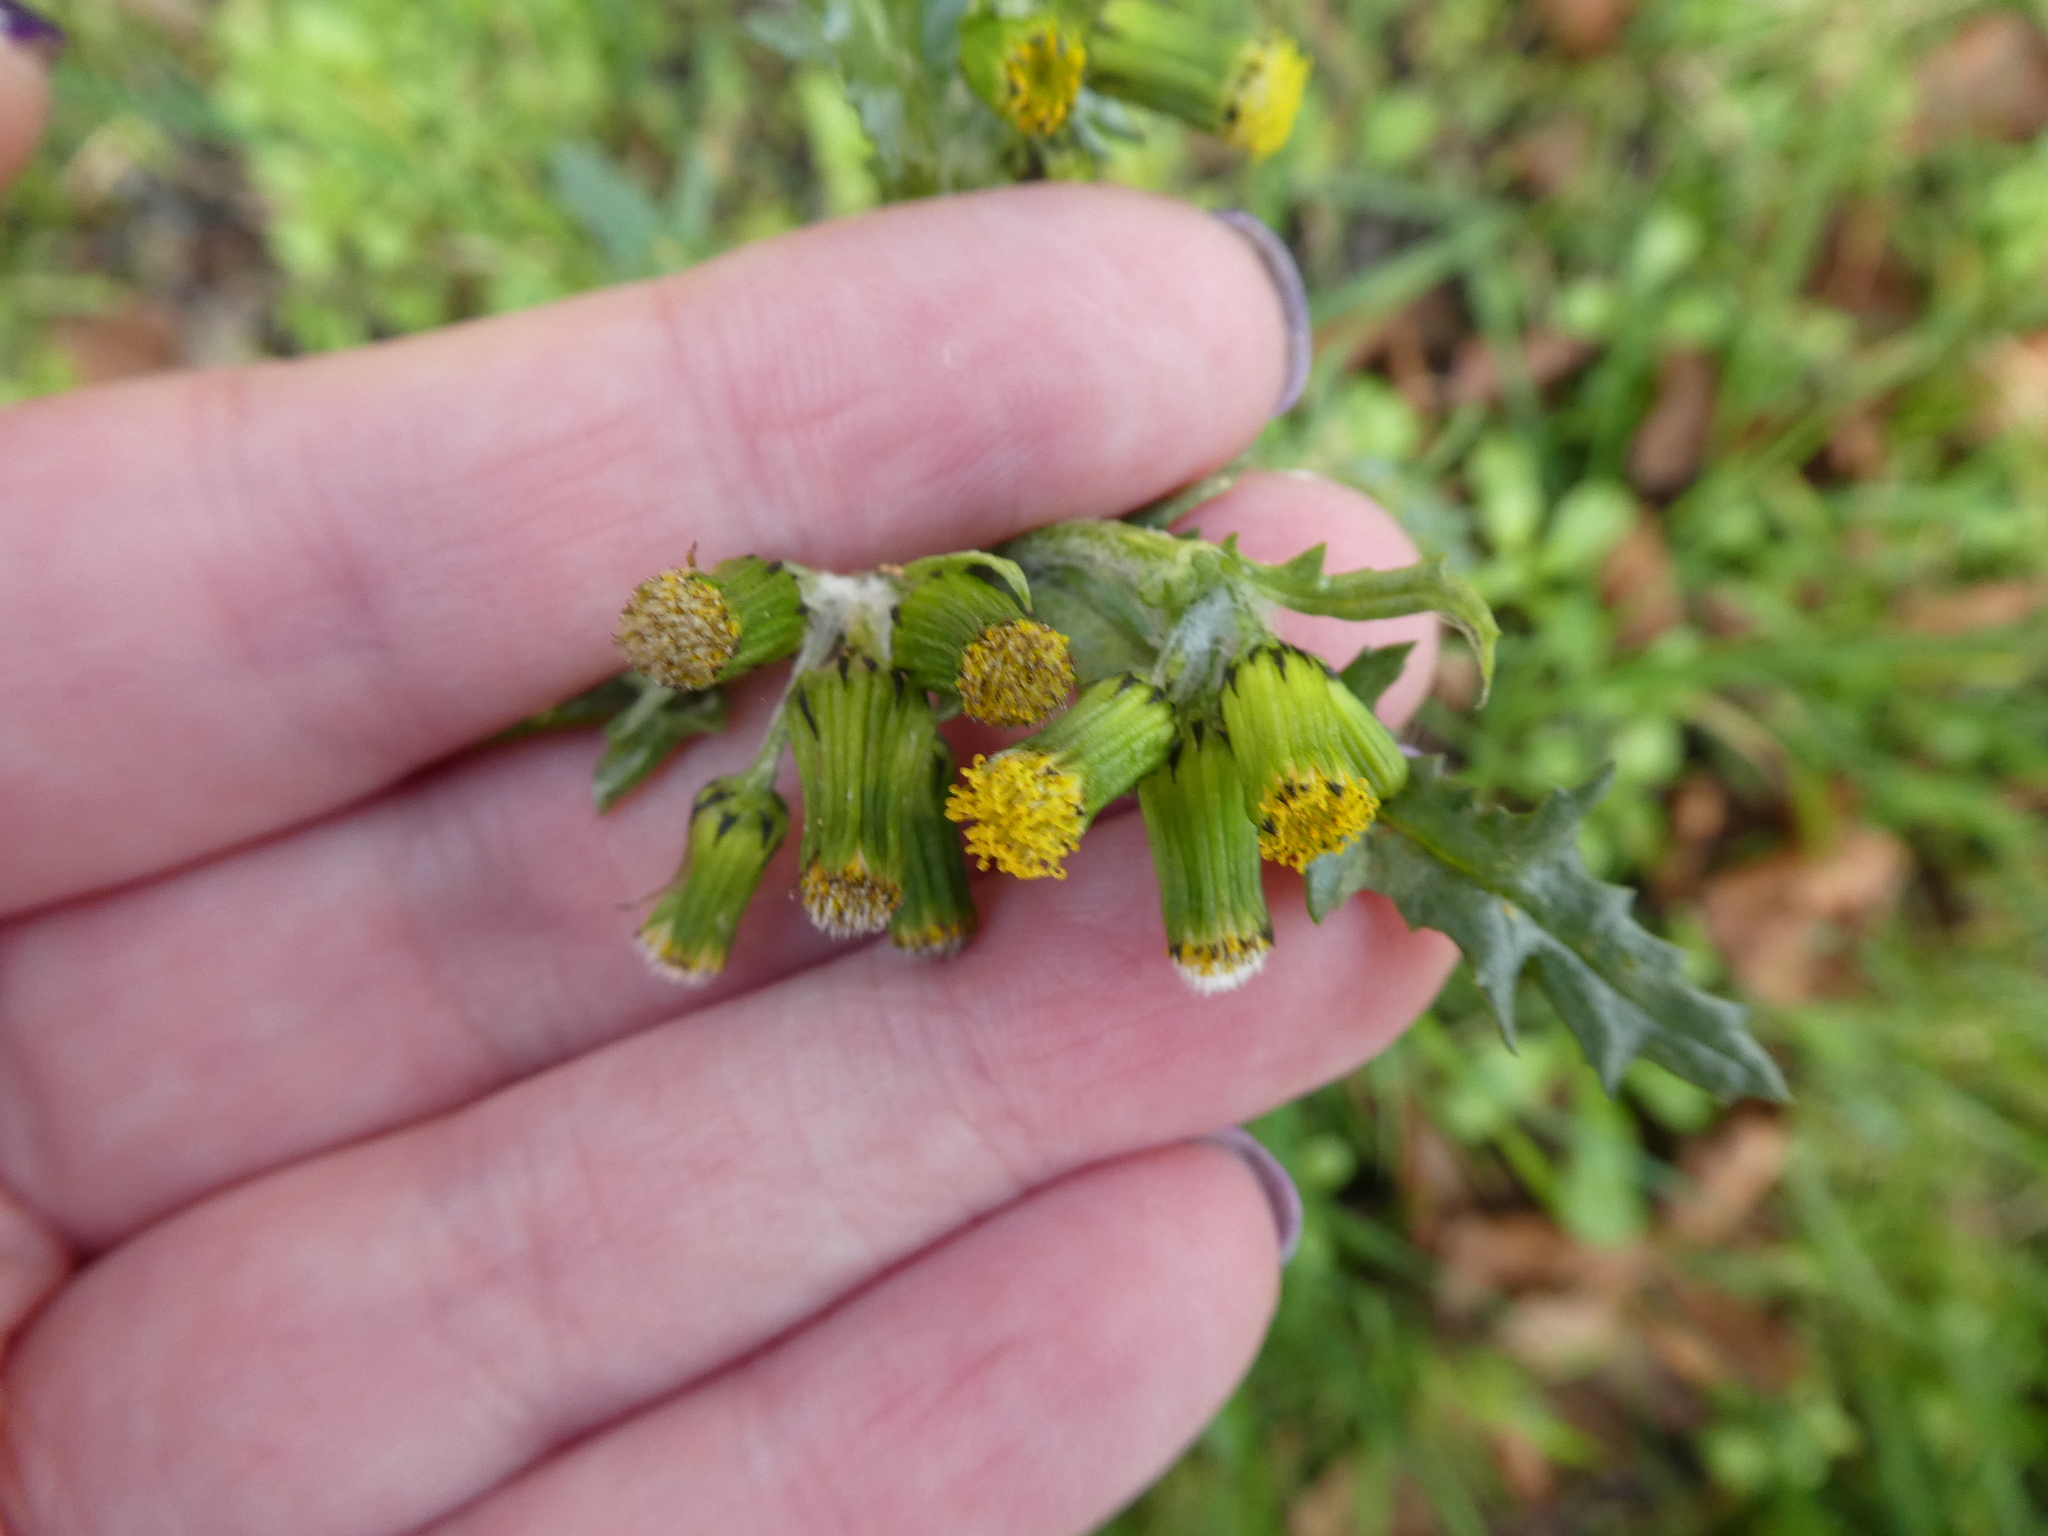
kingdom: Plantae
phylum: Tracheophyta
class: Magnoliopsida
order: Asterales
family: Asteraceae
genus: Senecio
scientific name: Senecio vulgaris
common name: Old-man-in-the-spring
